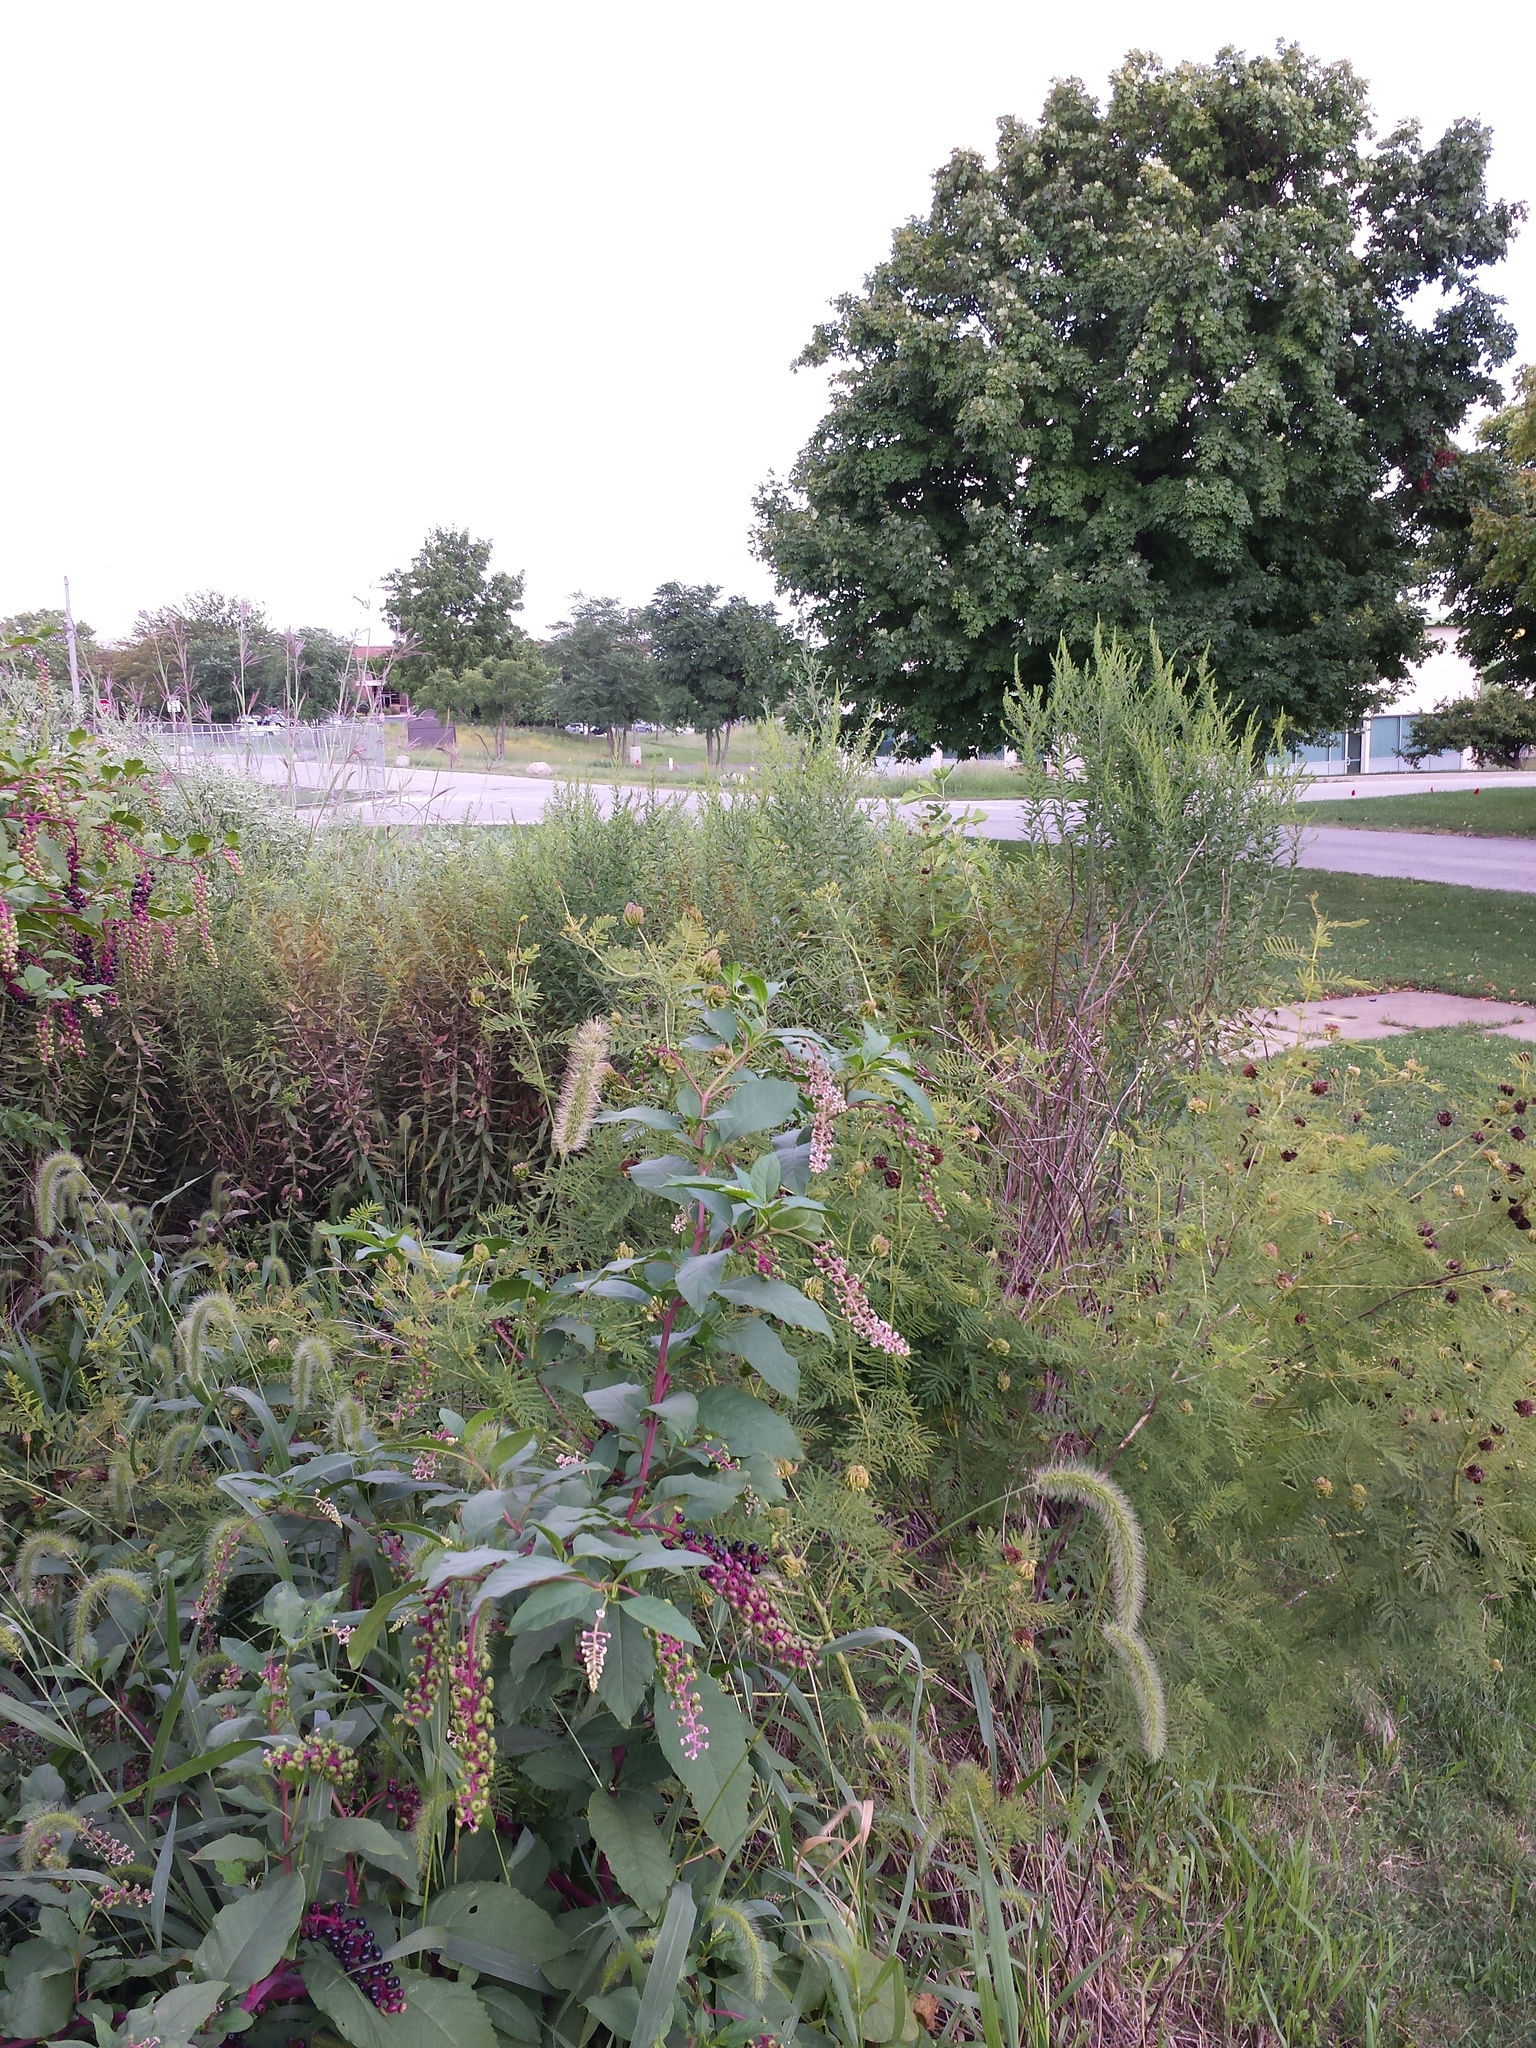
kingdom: Plantae
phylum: Tracheophyta
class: Magnoliopsida
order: Caryophyllales
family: Phytolaccaceae
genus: Phytolacca
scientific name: Phytolacca americana
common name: American pokeweed
